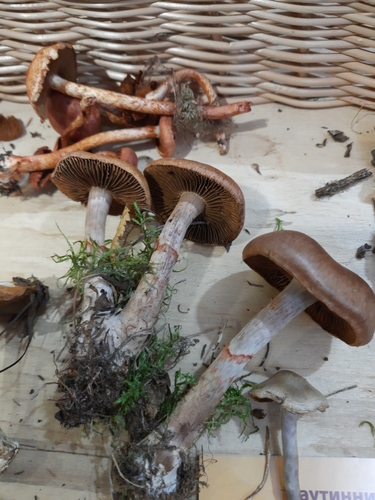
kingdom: Fungi
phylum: Basidiomycota
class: Agaricomycetes
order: Agaricales
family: Cortinariaceae
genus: Cortinarius
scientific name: Cortinarius armillatus
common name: Red banded webcap
